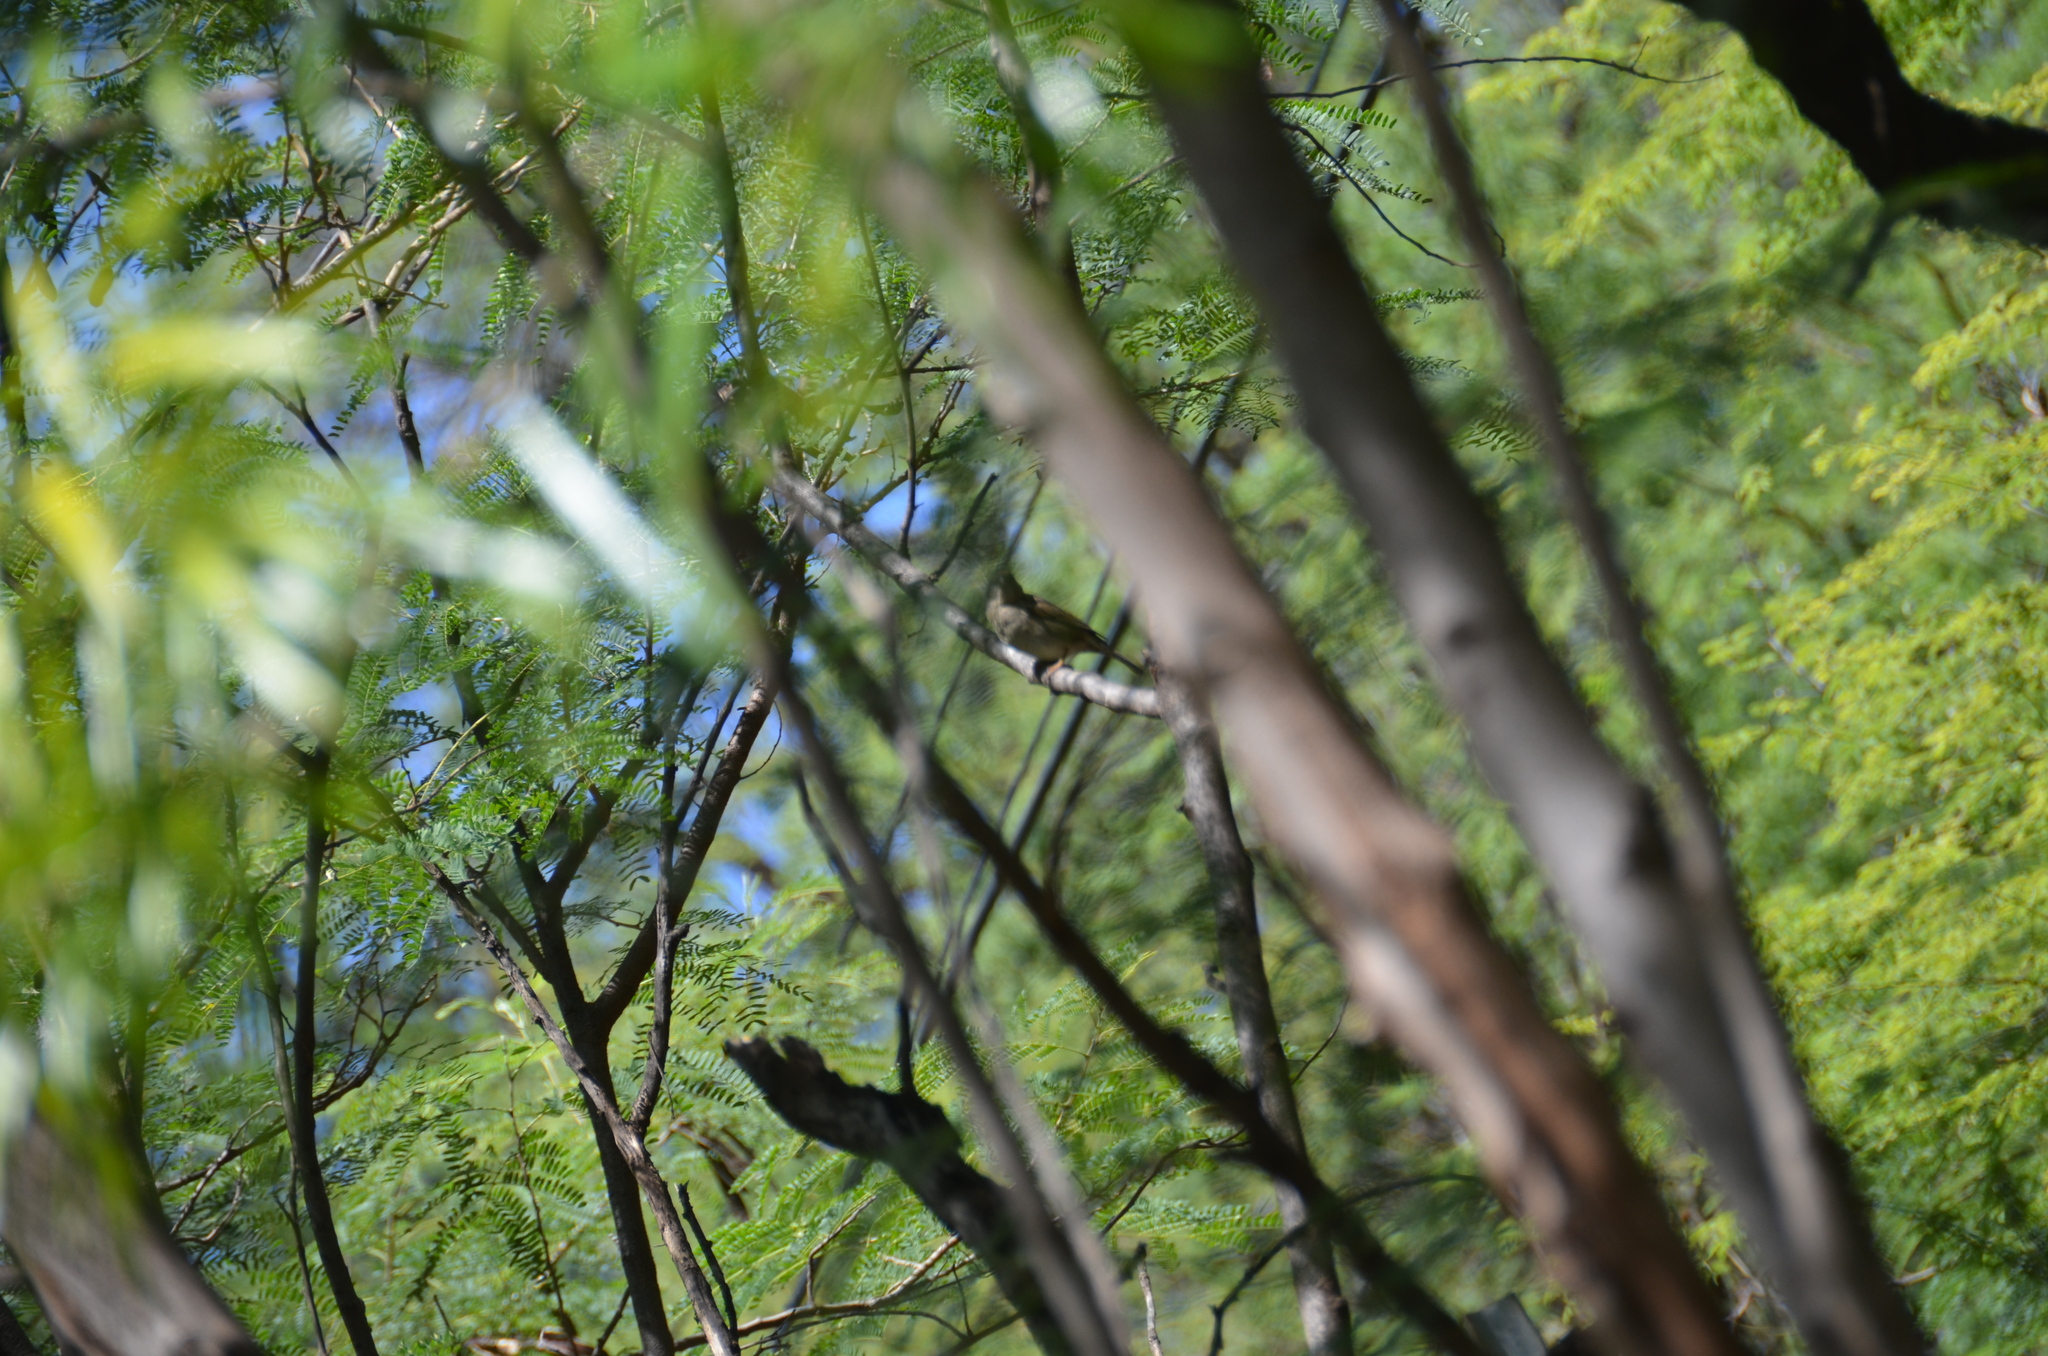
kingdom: Animalia
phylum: Chordata
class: Aves
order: Passeriformes
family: Passeridae
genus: Passer
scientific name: Passer domesticus
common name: House sparrow
